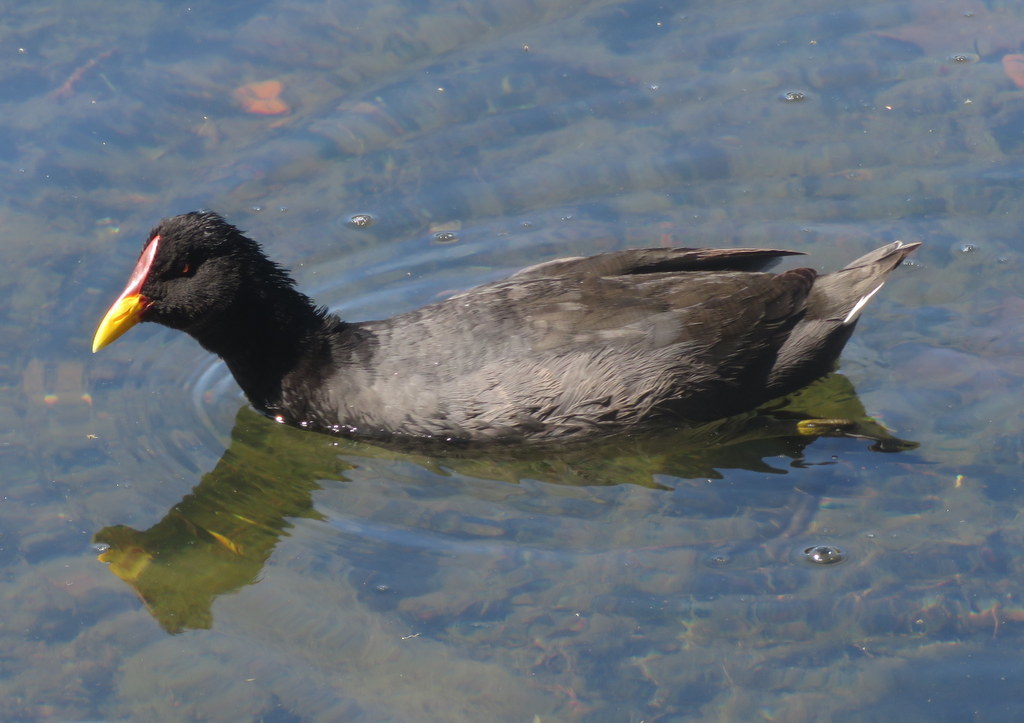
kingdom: Animalia
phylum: Chordata
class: Aves
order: Gruiformes
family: Rallidae
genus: Fulica
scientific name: Fulica rufifrons
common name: Red-fronted coot
